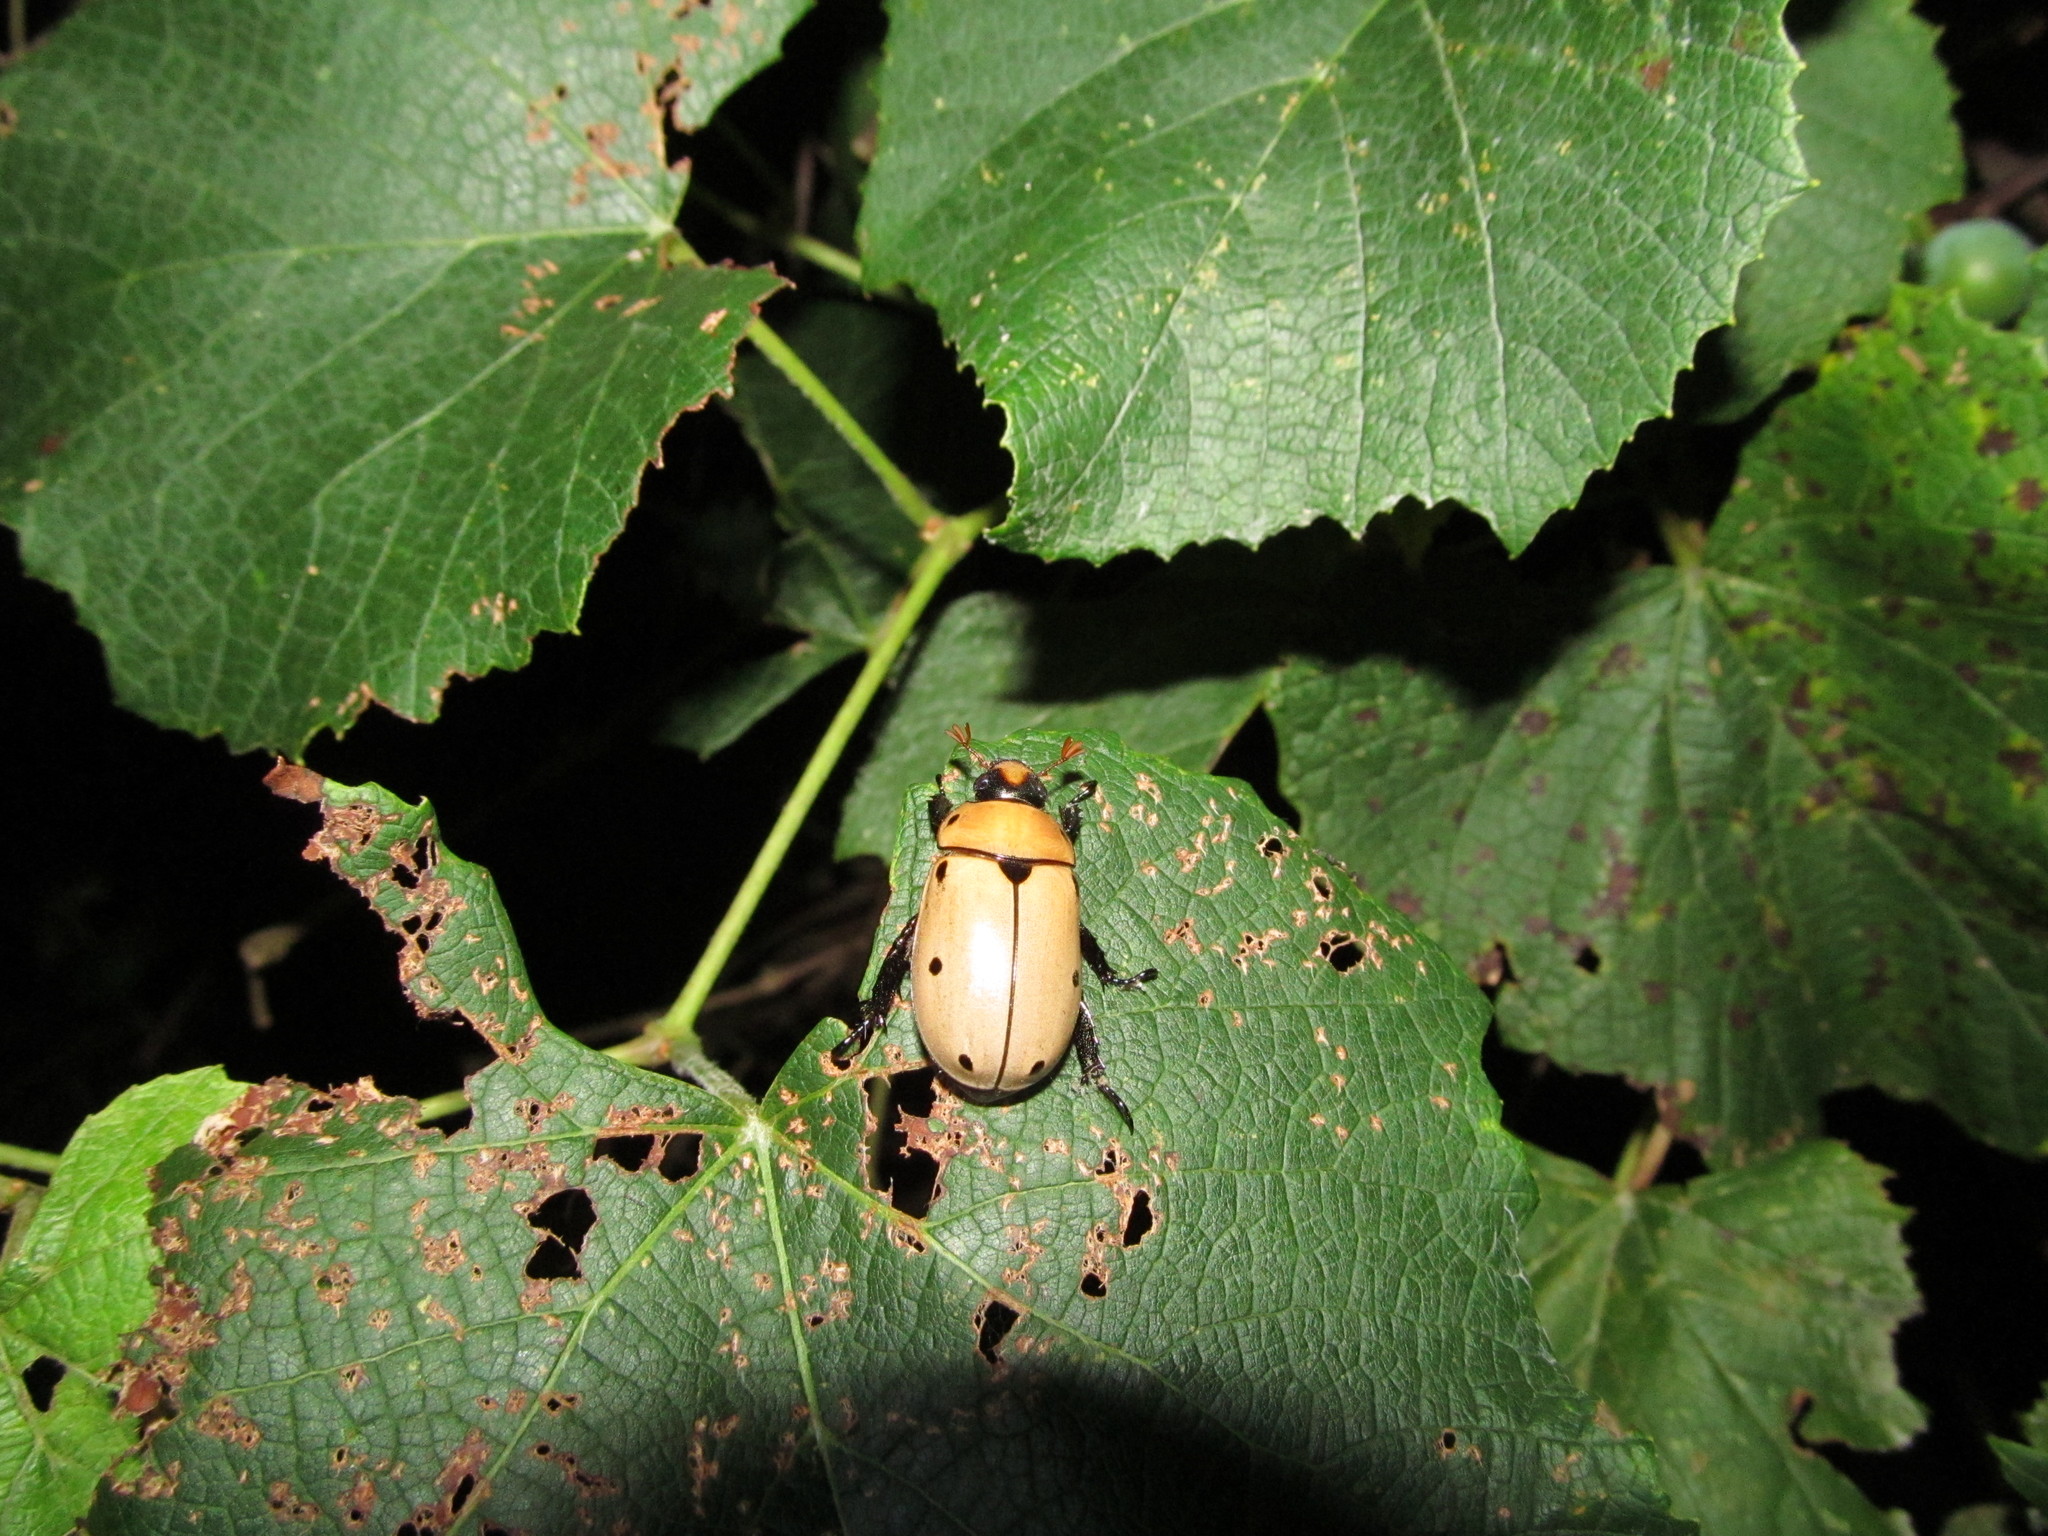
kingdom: Animalia
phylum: Arthropoda
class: Insecta
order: Coleoptera
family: Scarabaeidae
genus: Pelidnota
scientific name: Pelidnota punctata
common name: Grapevine beetle
